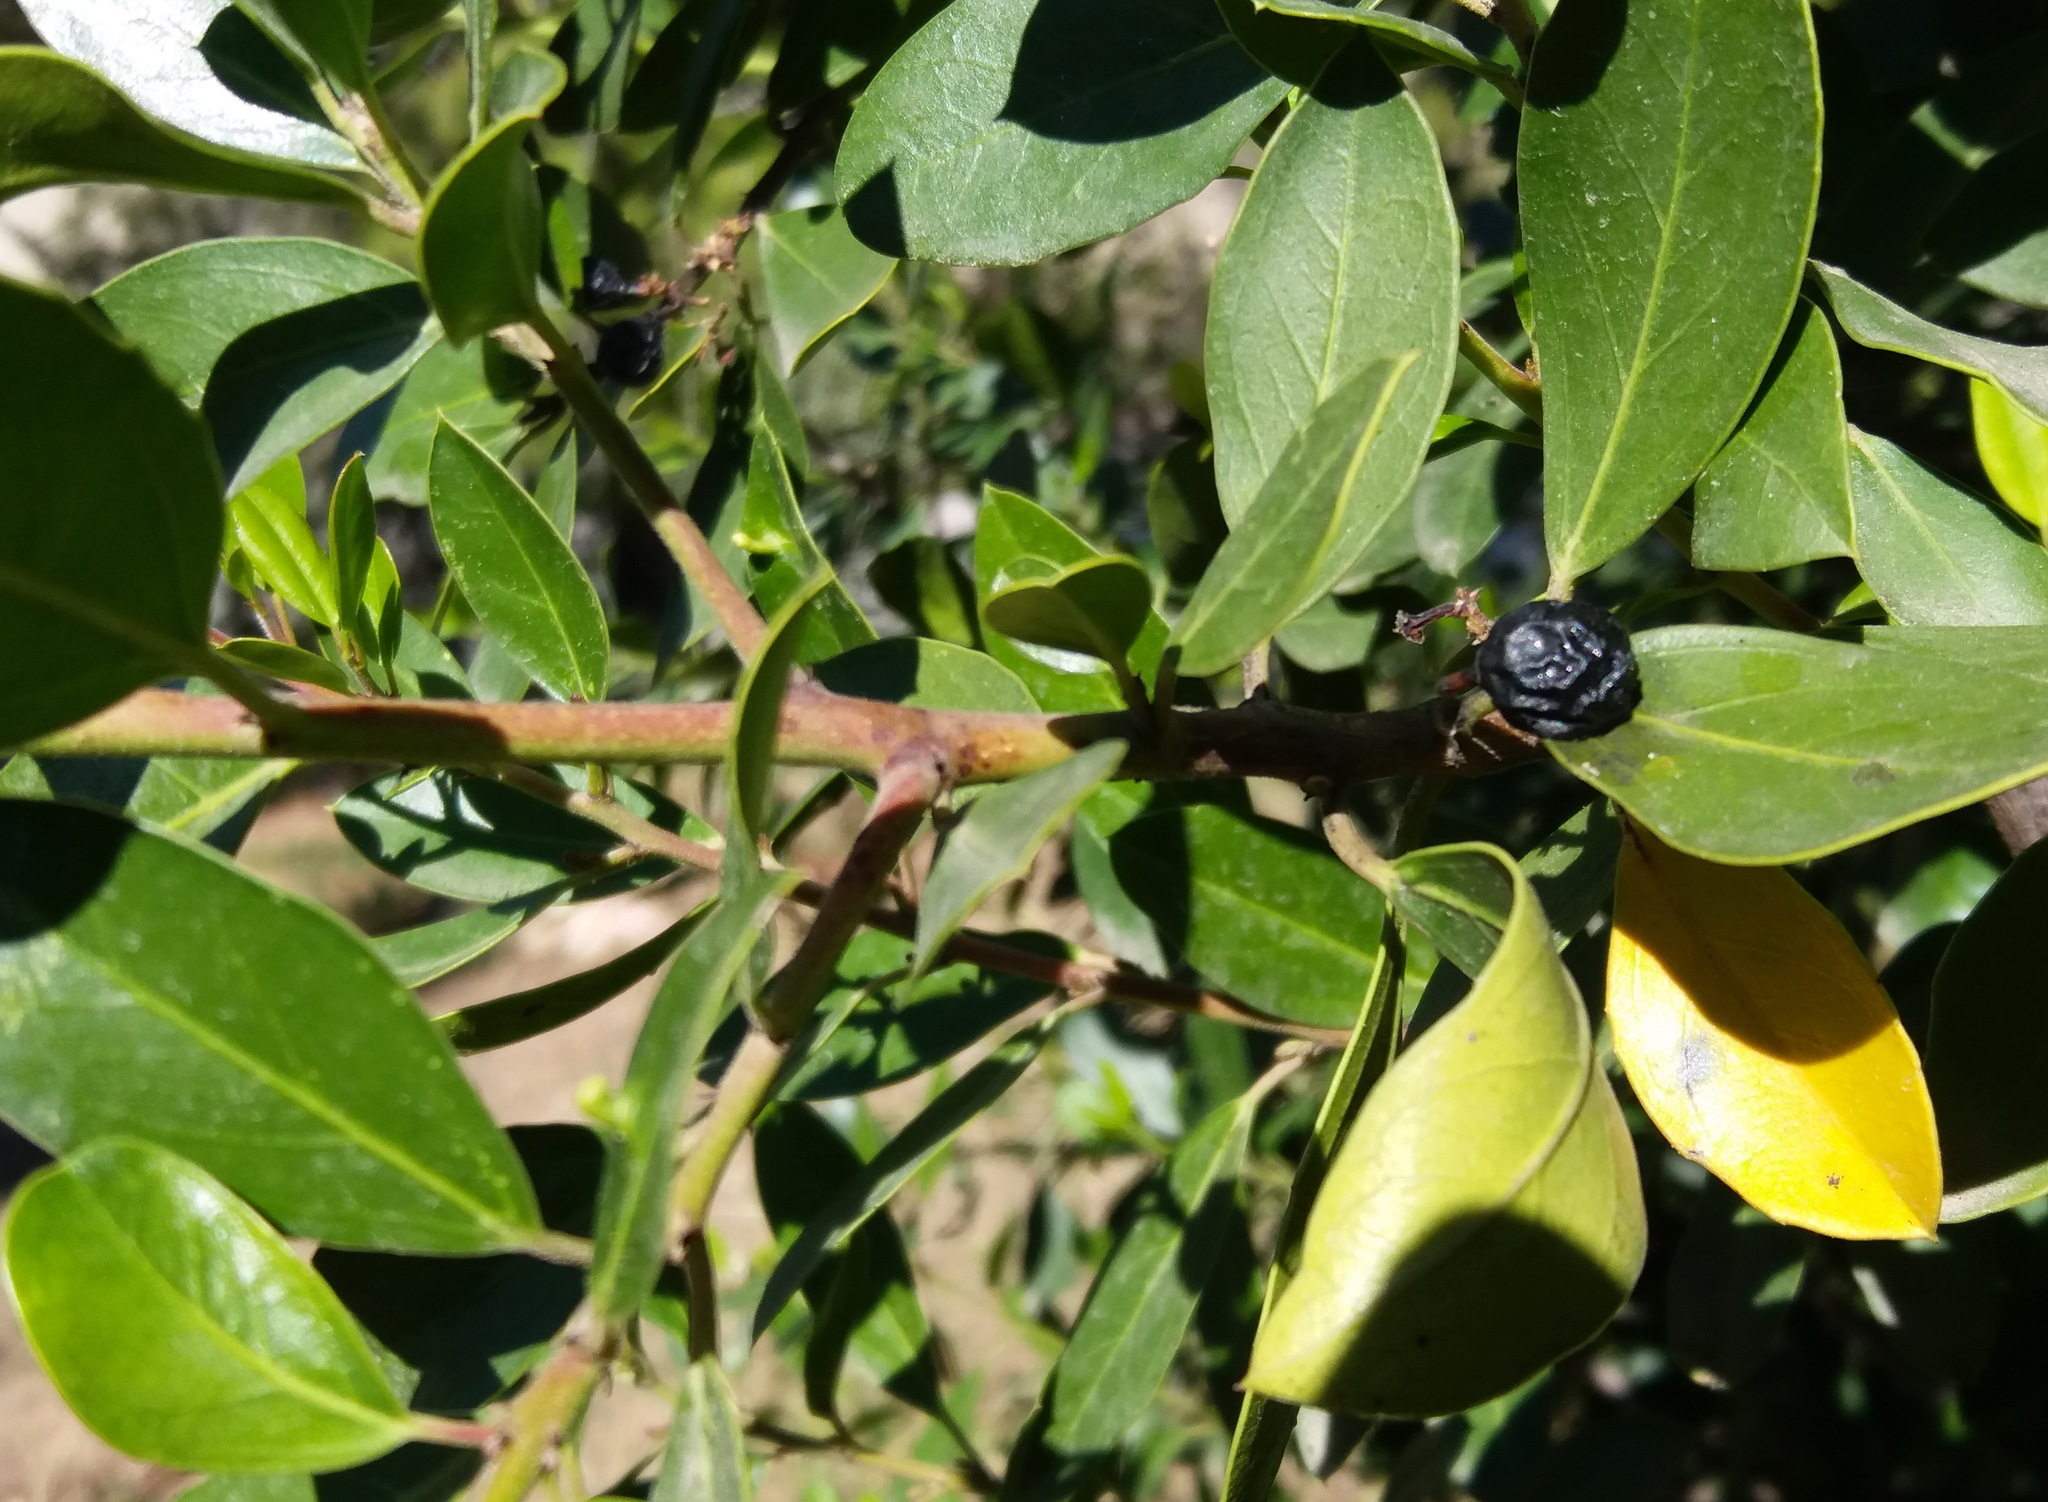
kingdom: Plantae
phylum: Tracheophyta
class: Magnoliopsida
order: Rosales
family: Rhamnaceae
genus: Rhamnus
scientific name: Rhamnus alaternus
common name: Mediterranean buckthorn
